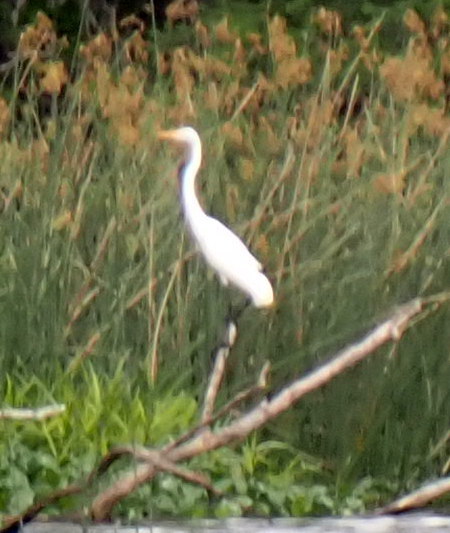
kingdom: Animalia
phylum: Chordata
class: Aves
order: Pelecaniformes
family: Ardeidae
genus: Ardea
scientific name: Ardea alba
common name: Great egret
